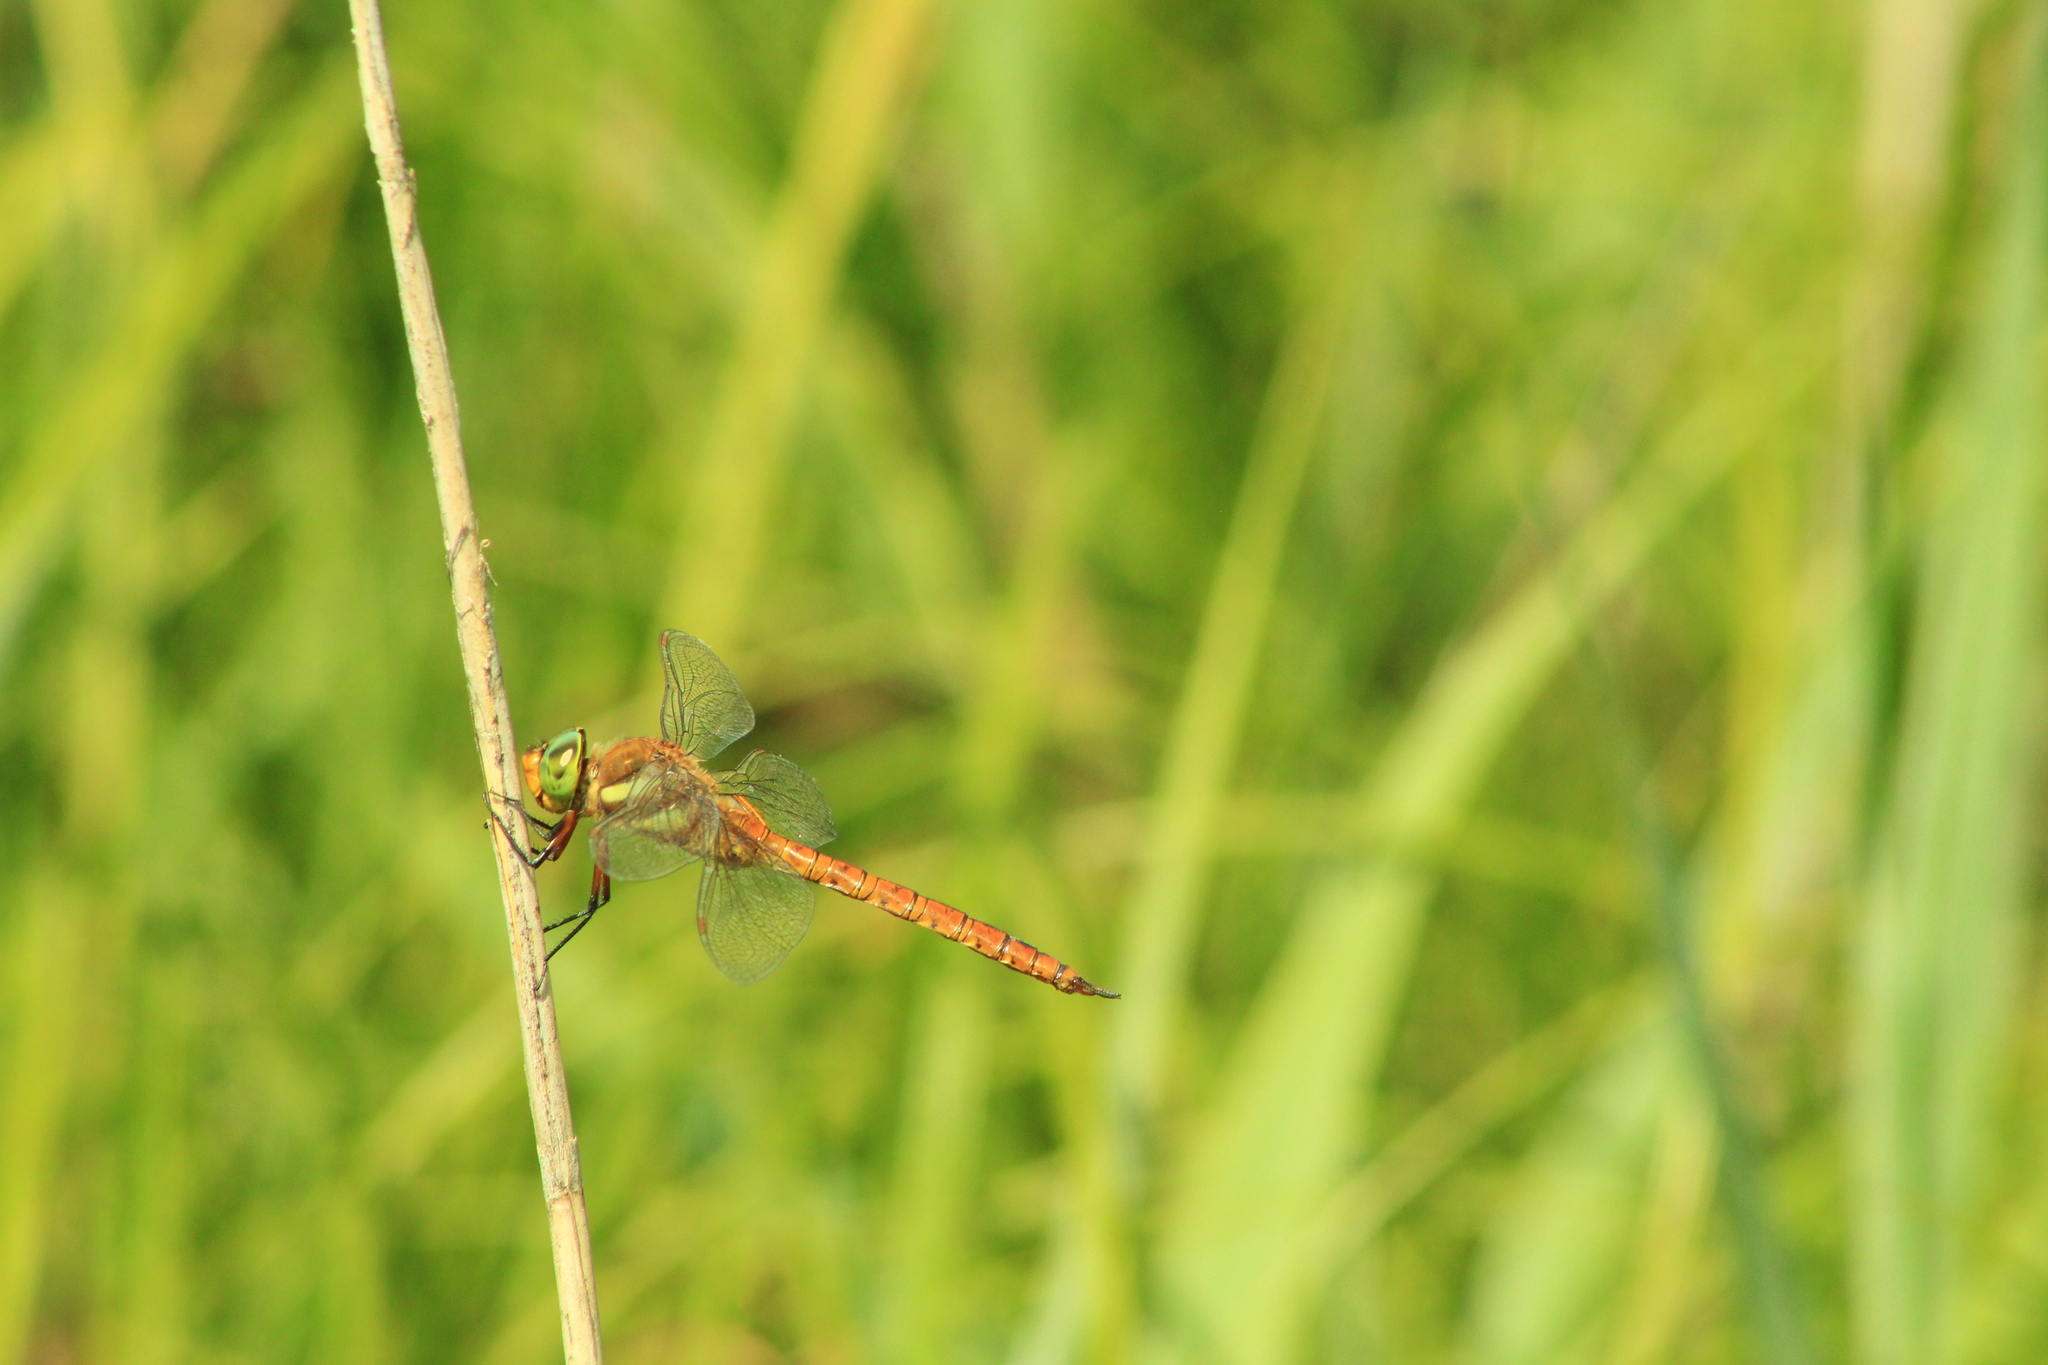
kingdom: Animalia
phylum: Arthropoda
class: Insecta
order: Odonata
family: Aeshnidae
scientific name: Aeshnidae
